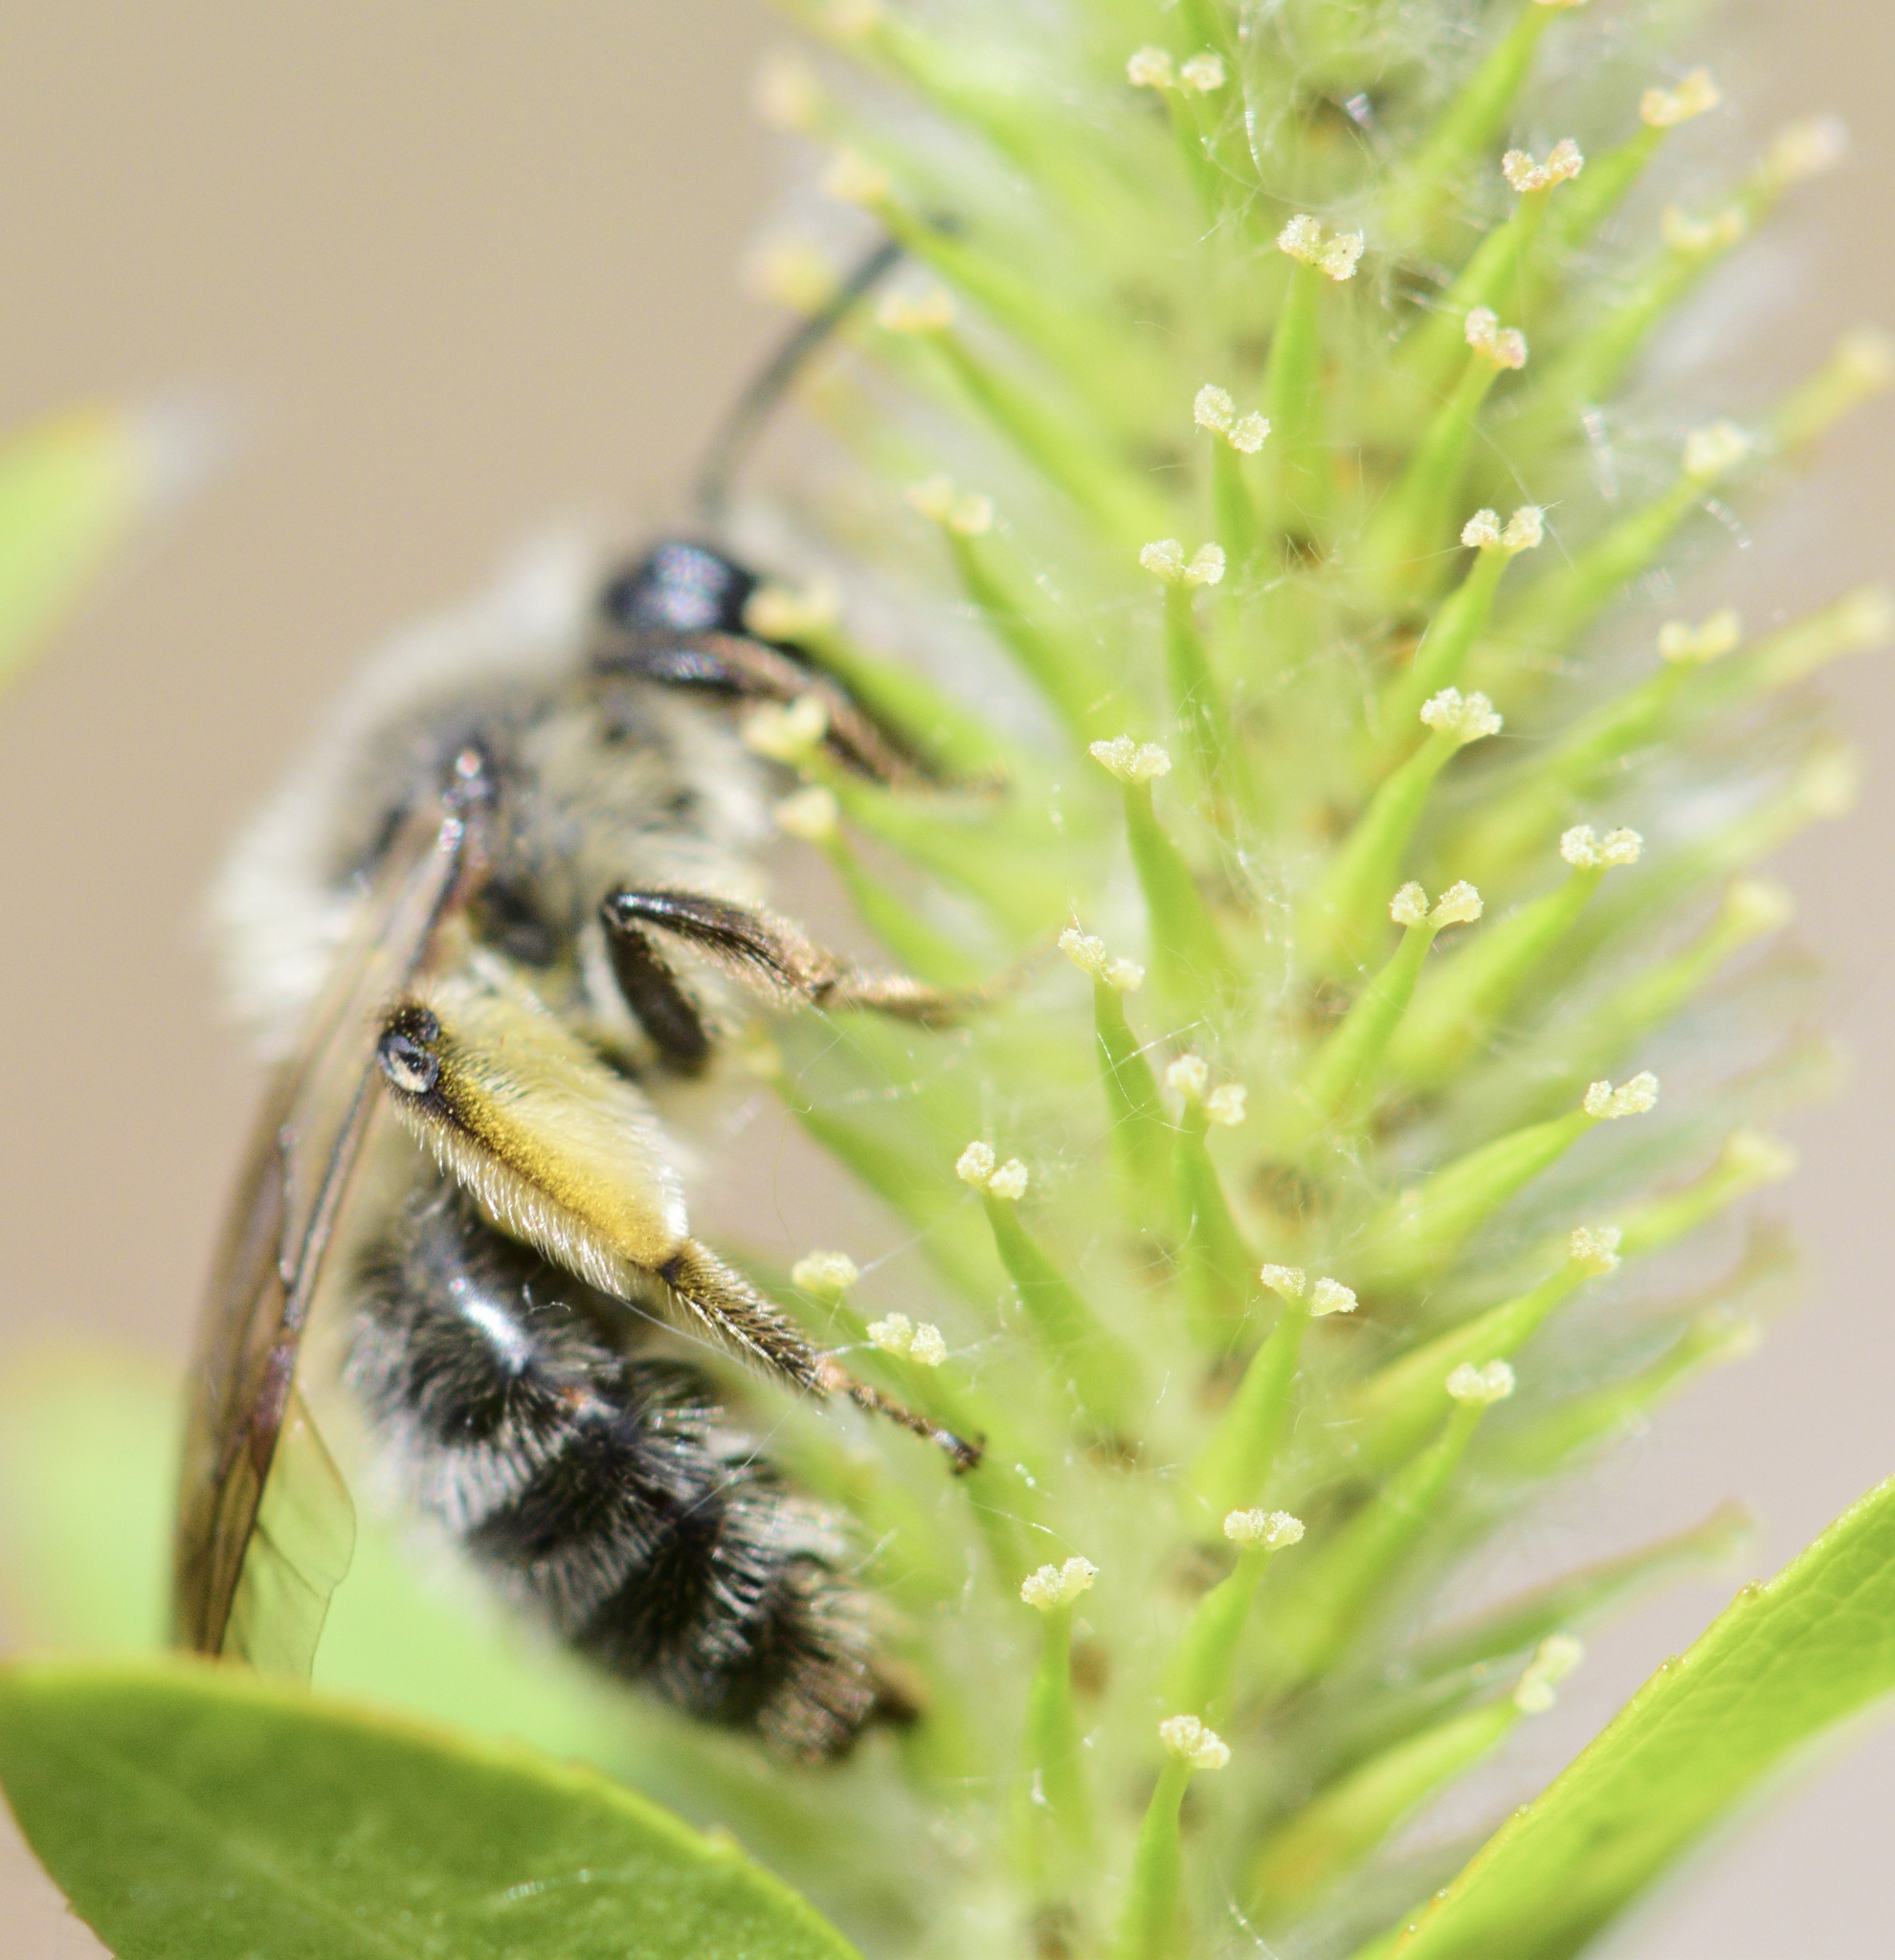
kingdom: Animalia
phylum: Arthropoda
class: Insecta
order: Hymenoptera
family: Andrenidae
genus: Andrena
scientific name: Andrena frigida
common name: Frigid mining bee
